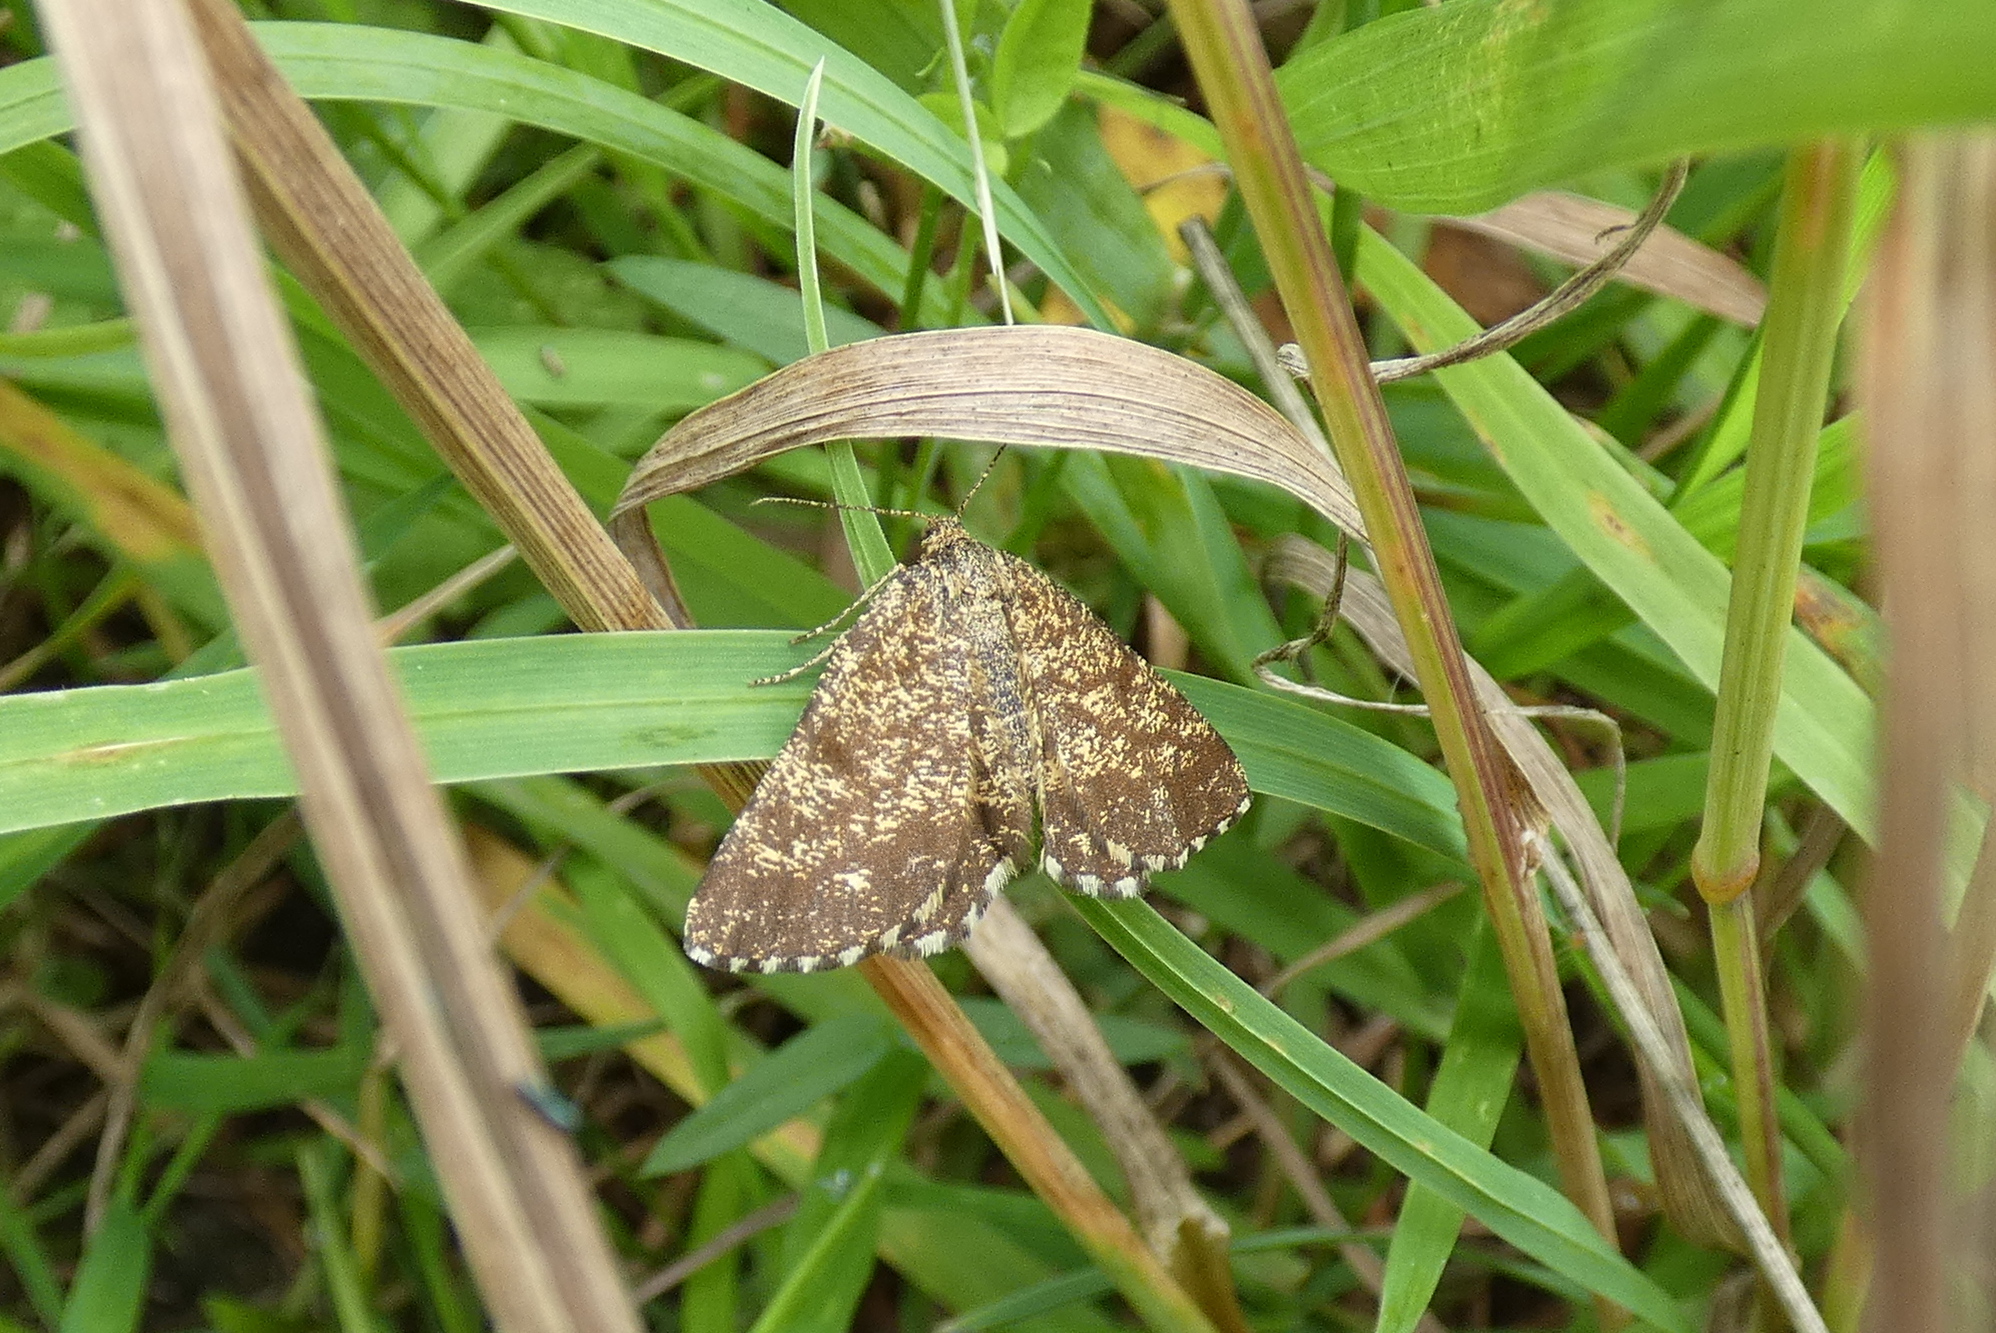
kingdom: Animalia
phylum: Arthropoda
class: Insecta
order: Lepidoptera
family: Geometridae
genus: Ematurga
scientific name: Ematurga atomaria
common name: Common heath
